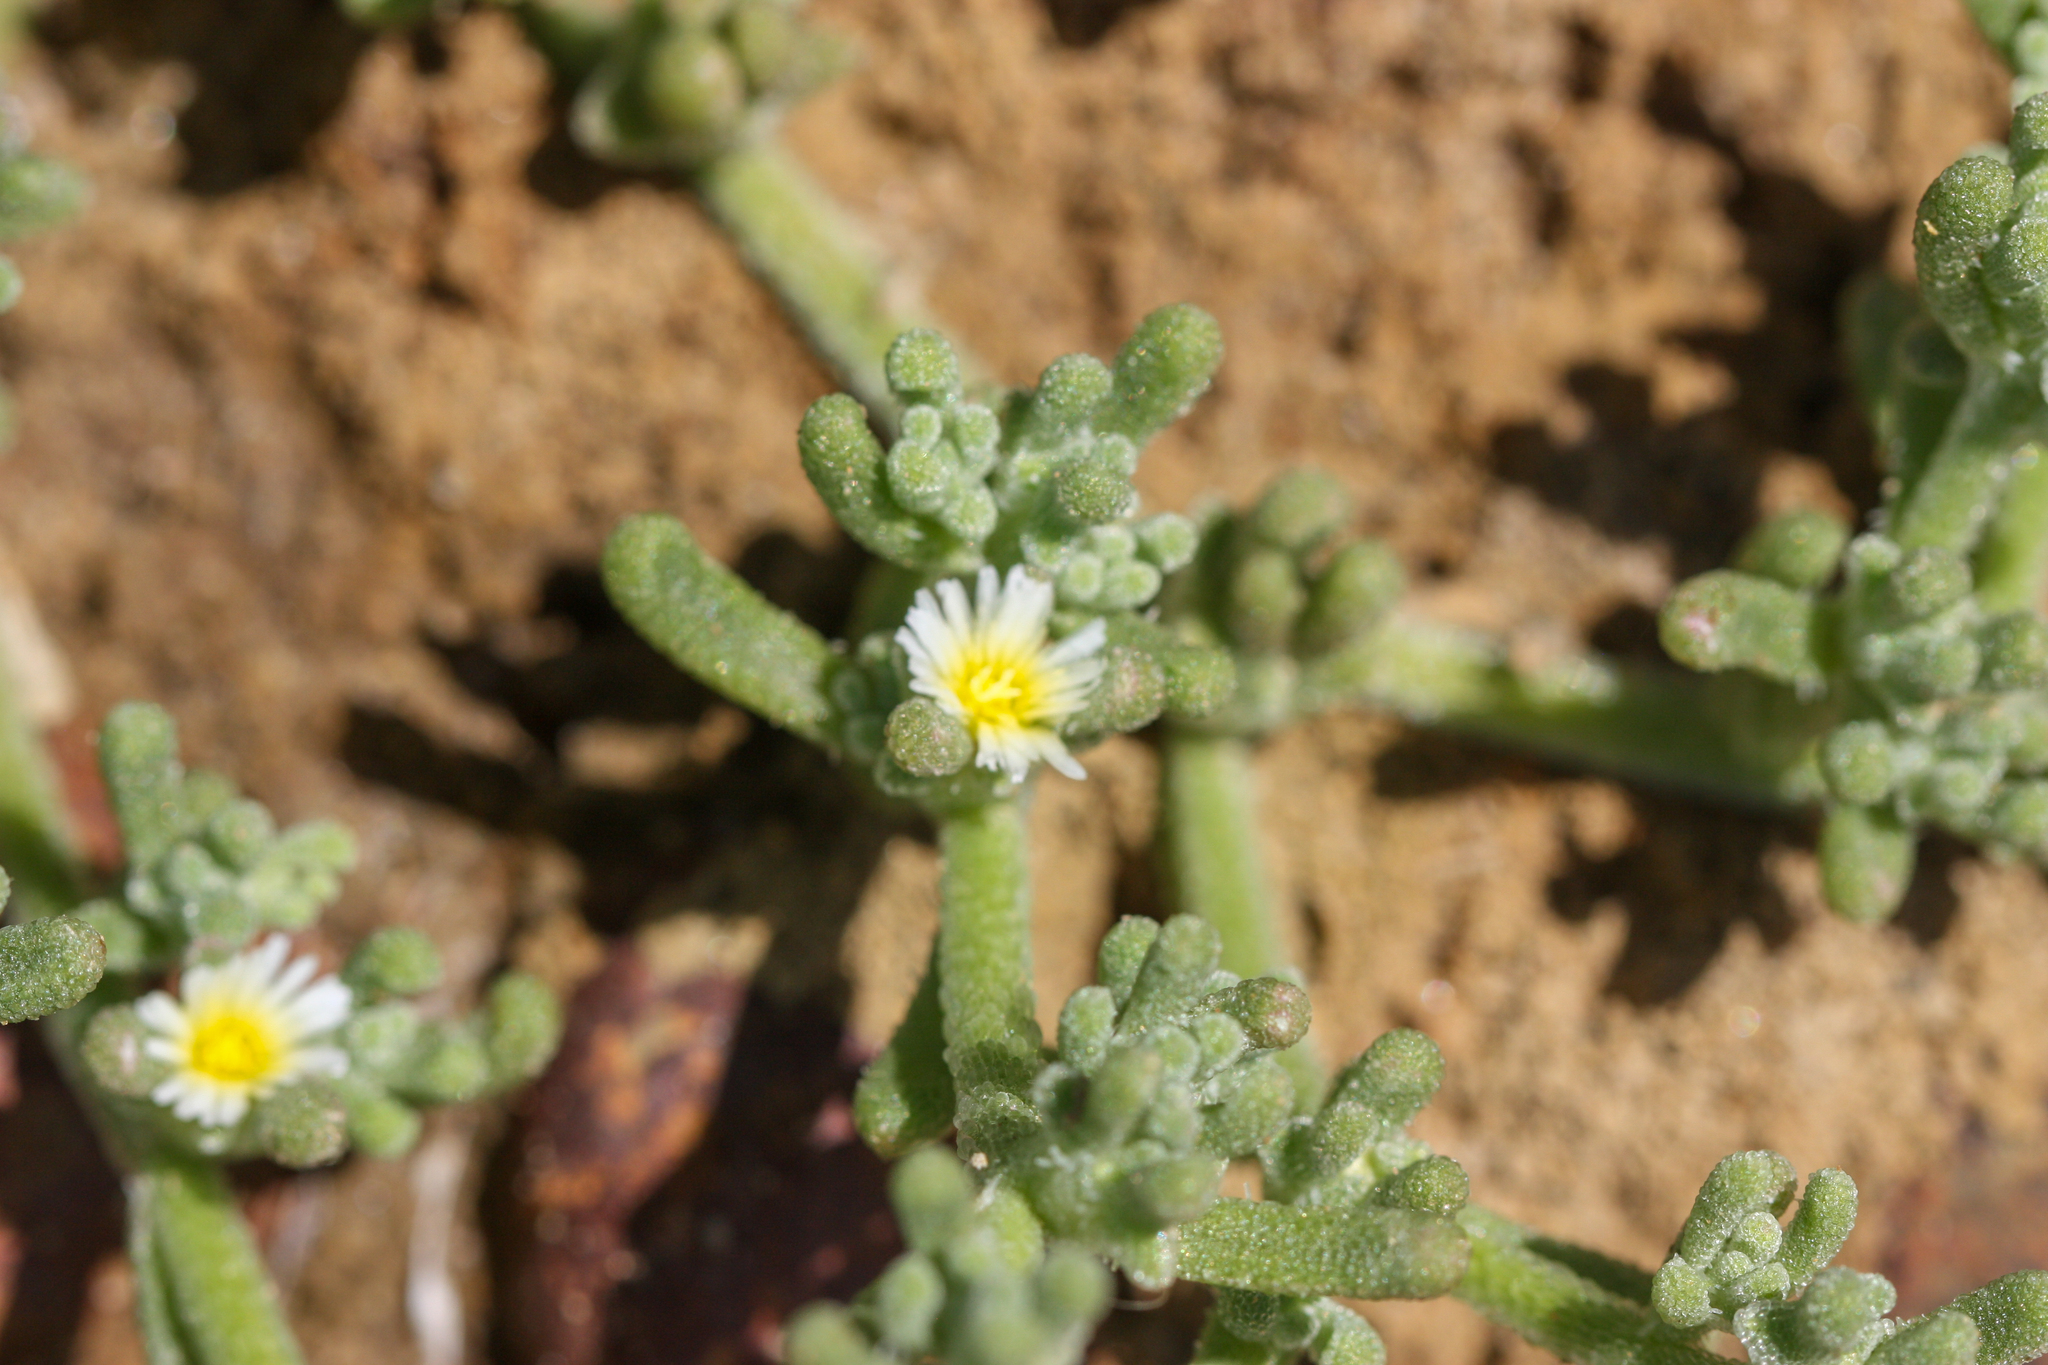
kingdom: Plantae
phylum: Tracheophyta
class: Magnoliopsida
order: Caryophyllales
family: Aizoaceae
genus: Mesembryanthemum
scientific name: Mesembryanthemum nodiflorum
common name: Slenderleaf iceplant
